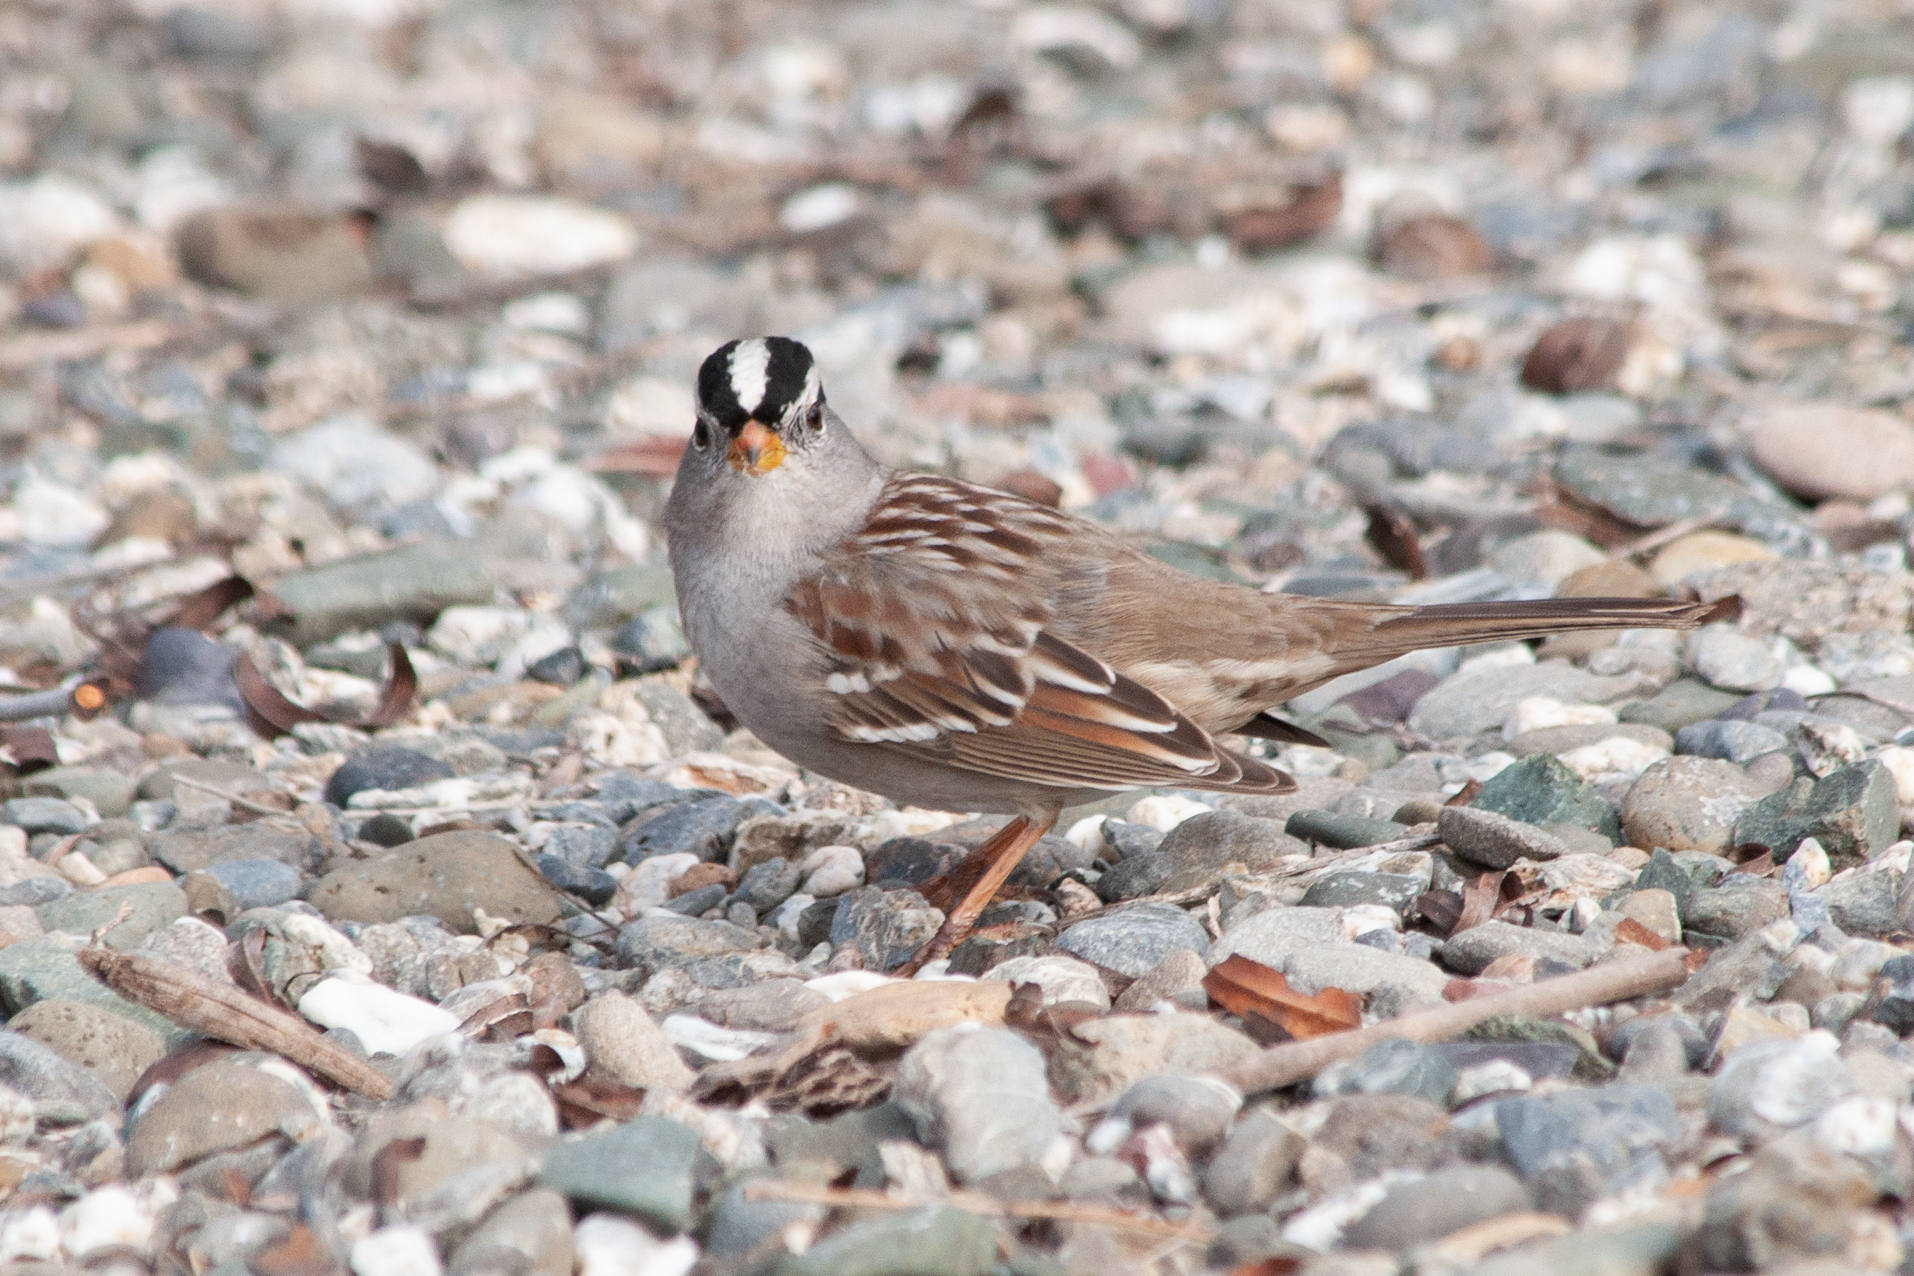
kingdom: Animalia
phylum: Chordata
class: Aves
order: Passeriformes
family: Passerellidae
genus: Zonotrichia
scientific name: Zonotrichia leucophrys
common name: White-crowned sparrow
